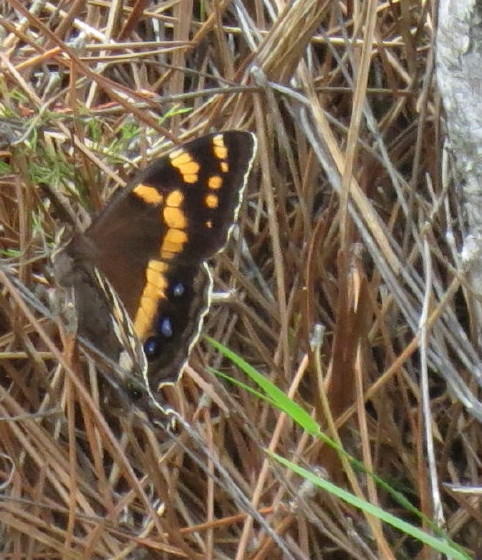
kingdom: Animalia
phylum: Arthropoda
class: Insecta
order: Lepidoptera
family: Nymphalidae
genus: Meneris
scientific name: Meneris Aeropetes tulbaghia
